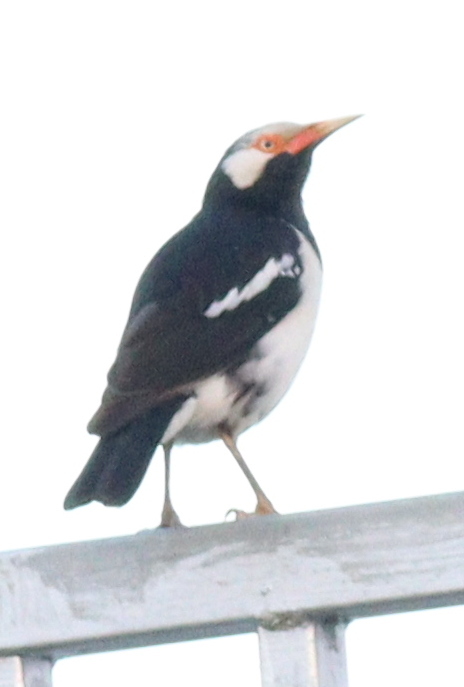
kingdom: Animalia
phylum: Chordata
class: Aves
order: Passeriformes
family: Sturnidae
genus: Gracupica
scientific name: Gracupica contra
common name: Pied myna
